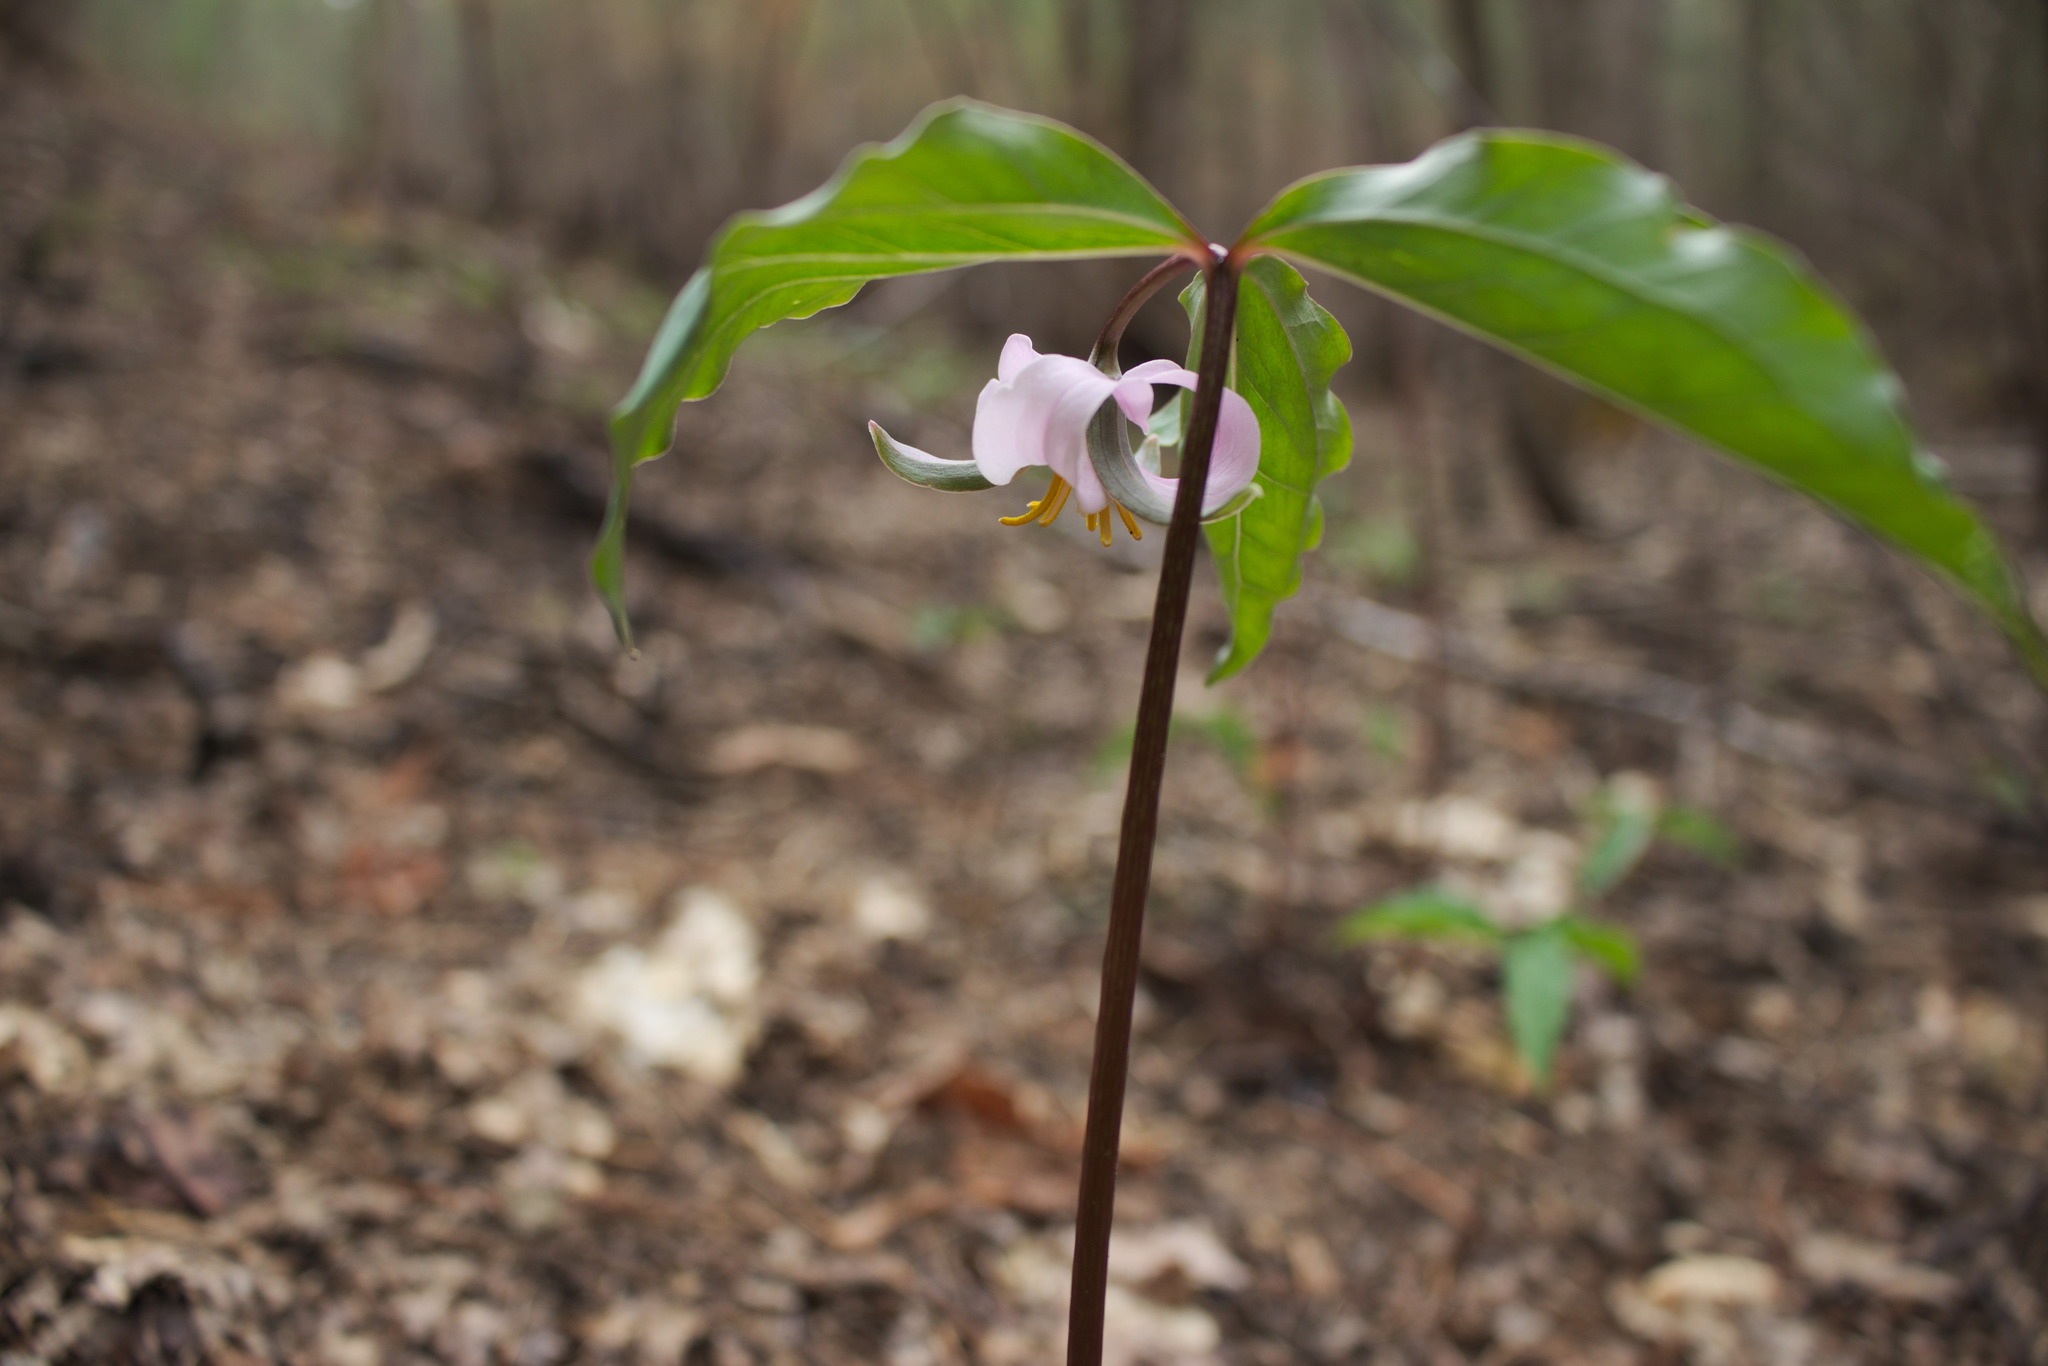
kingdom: Plantae
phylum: Tracheophyta
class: Liliopsida
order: Liliales
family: Melanthiaceae
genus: Trillium
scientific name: Trillium catesbaei
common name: Bashful trillium
